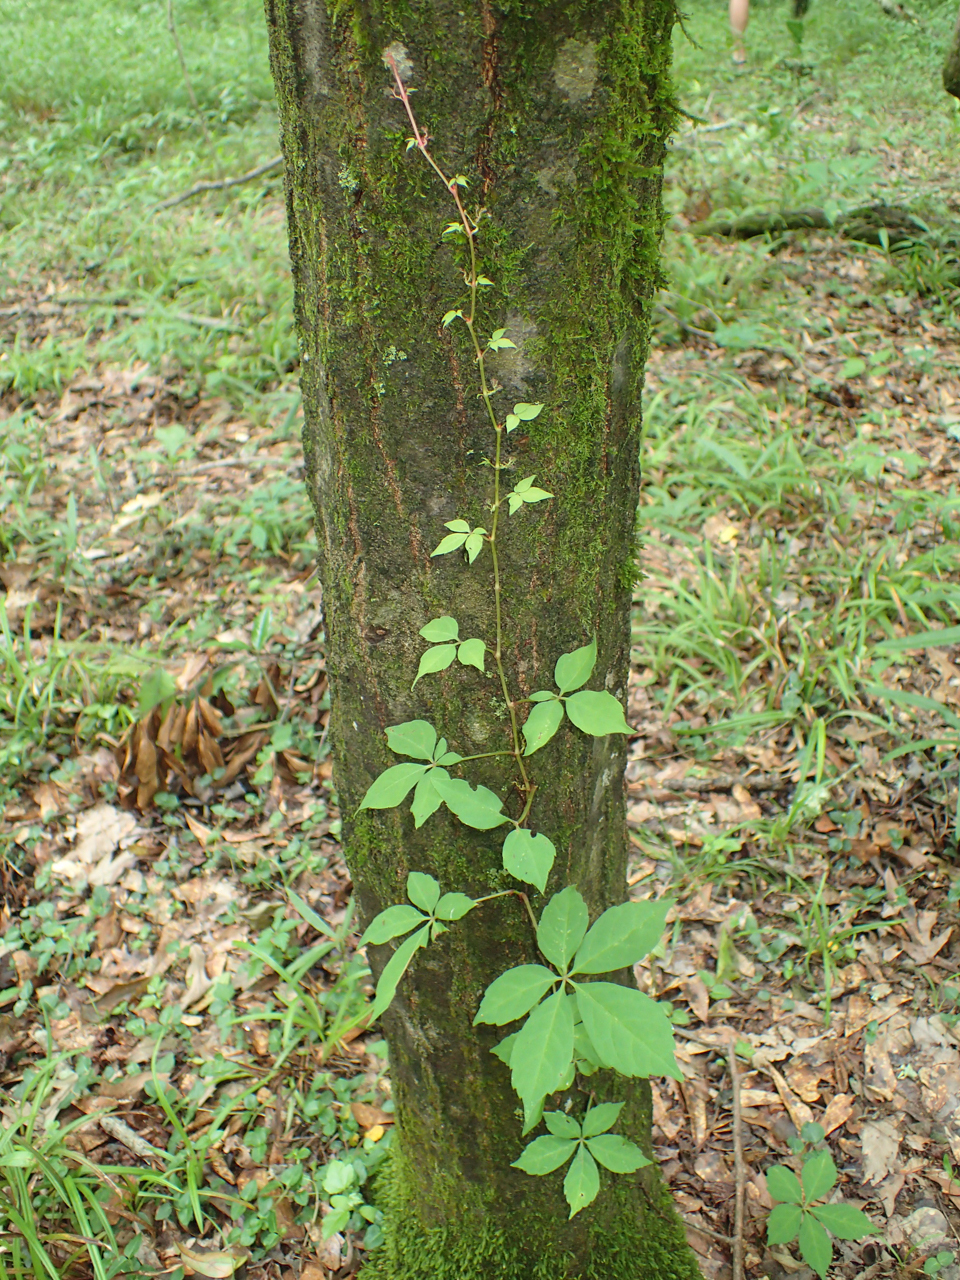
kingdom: Plantae
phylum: Tracheophyta
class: Magnoliopsida
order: Vitales
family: Vitaceae
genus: Parthenocissus
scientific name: Parthenocissus quinquefolia
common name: Virginia-creeper
